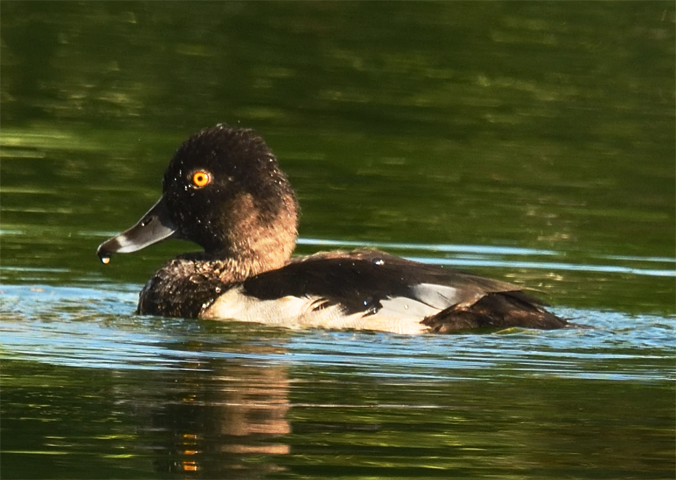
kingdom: Animalia
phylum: Chordata
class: Aves
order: Anseriformes
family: Anatidae
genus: Aythya
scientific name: Aythya collaris
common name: Ring-necked duck
